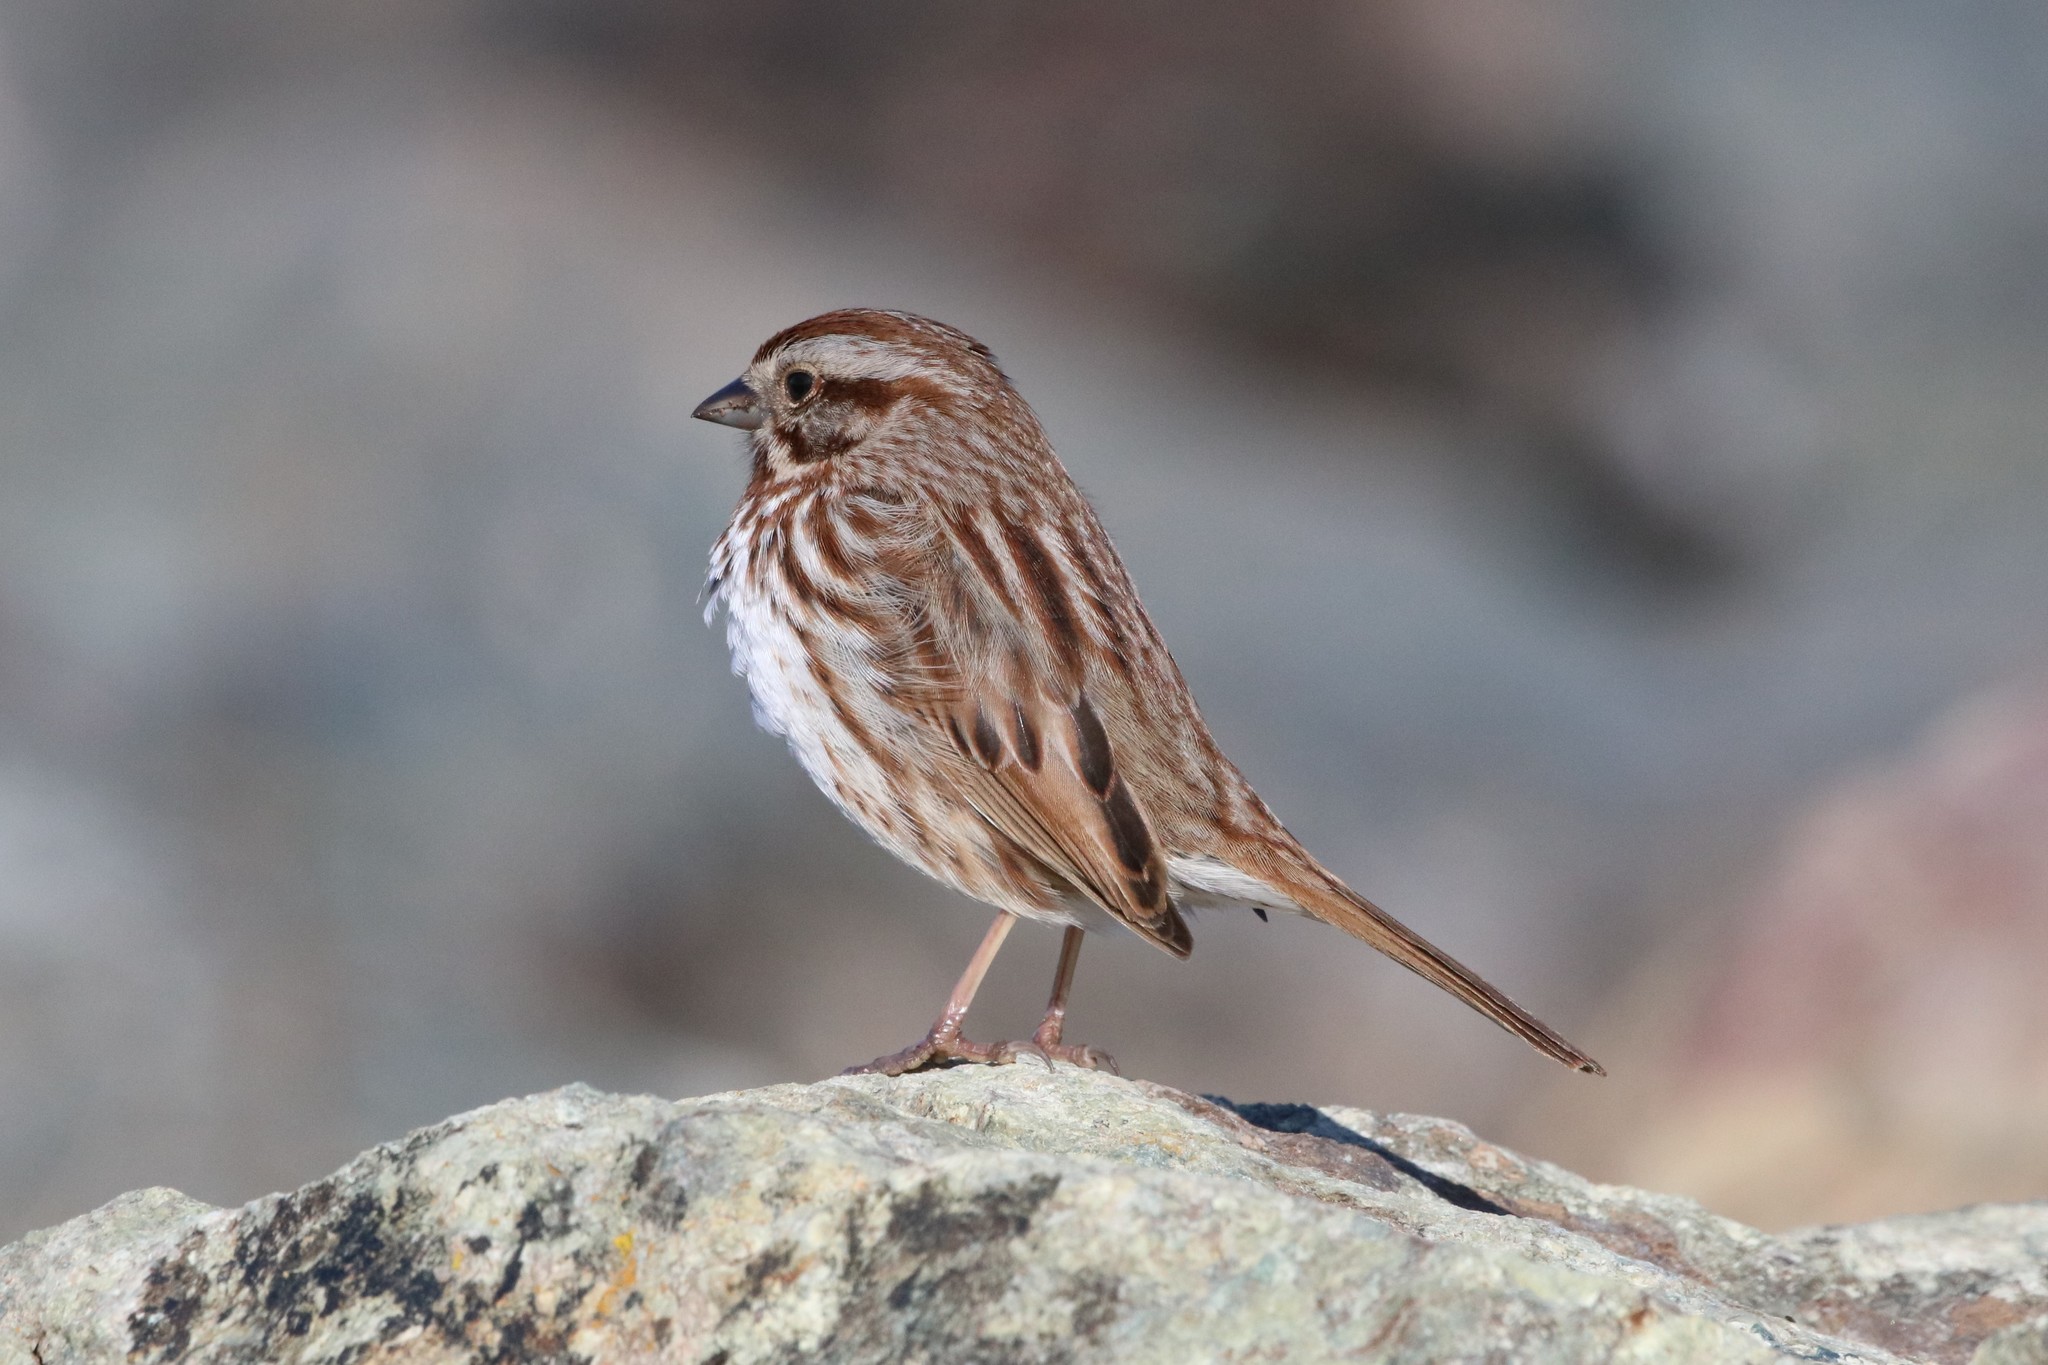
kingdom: Animalia
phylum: Chordata
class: Aves
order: Passeriformes
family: Passerellidae
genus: Melospiza
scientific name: Melospiza melodia
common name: Song sparrow
